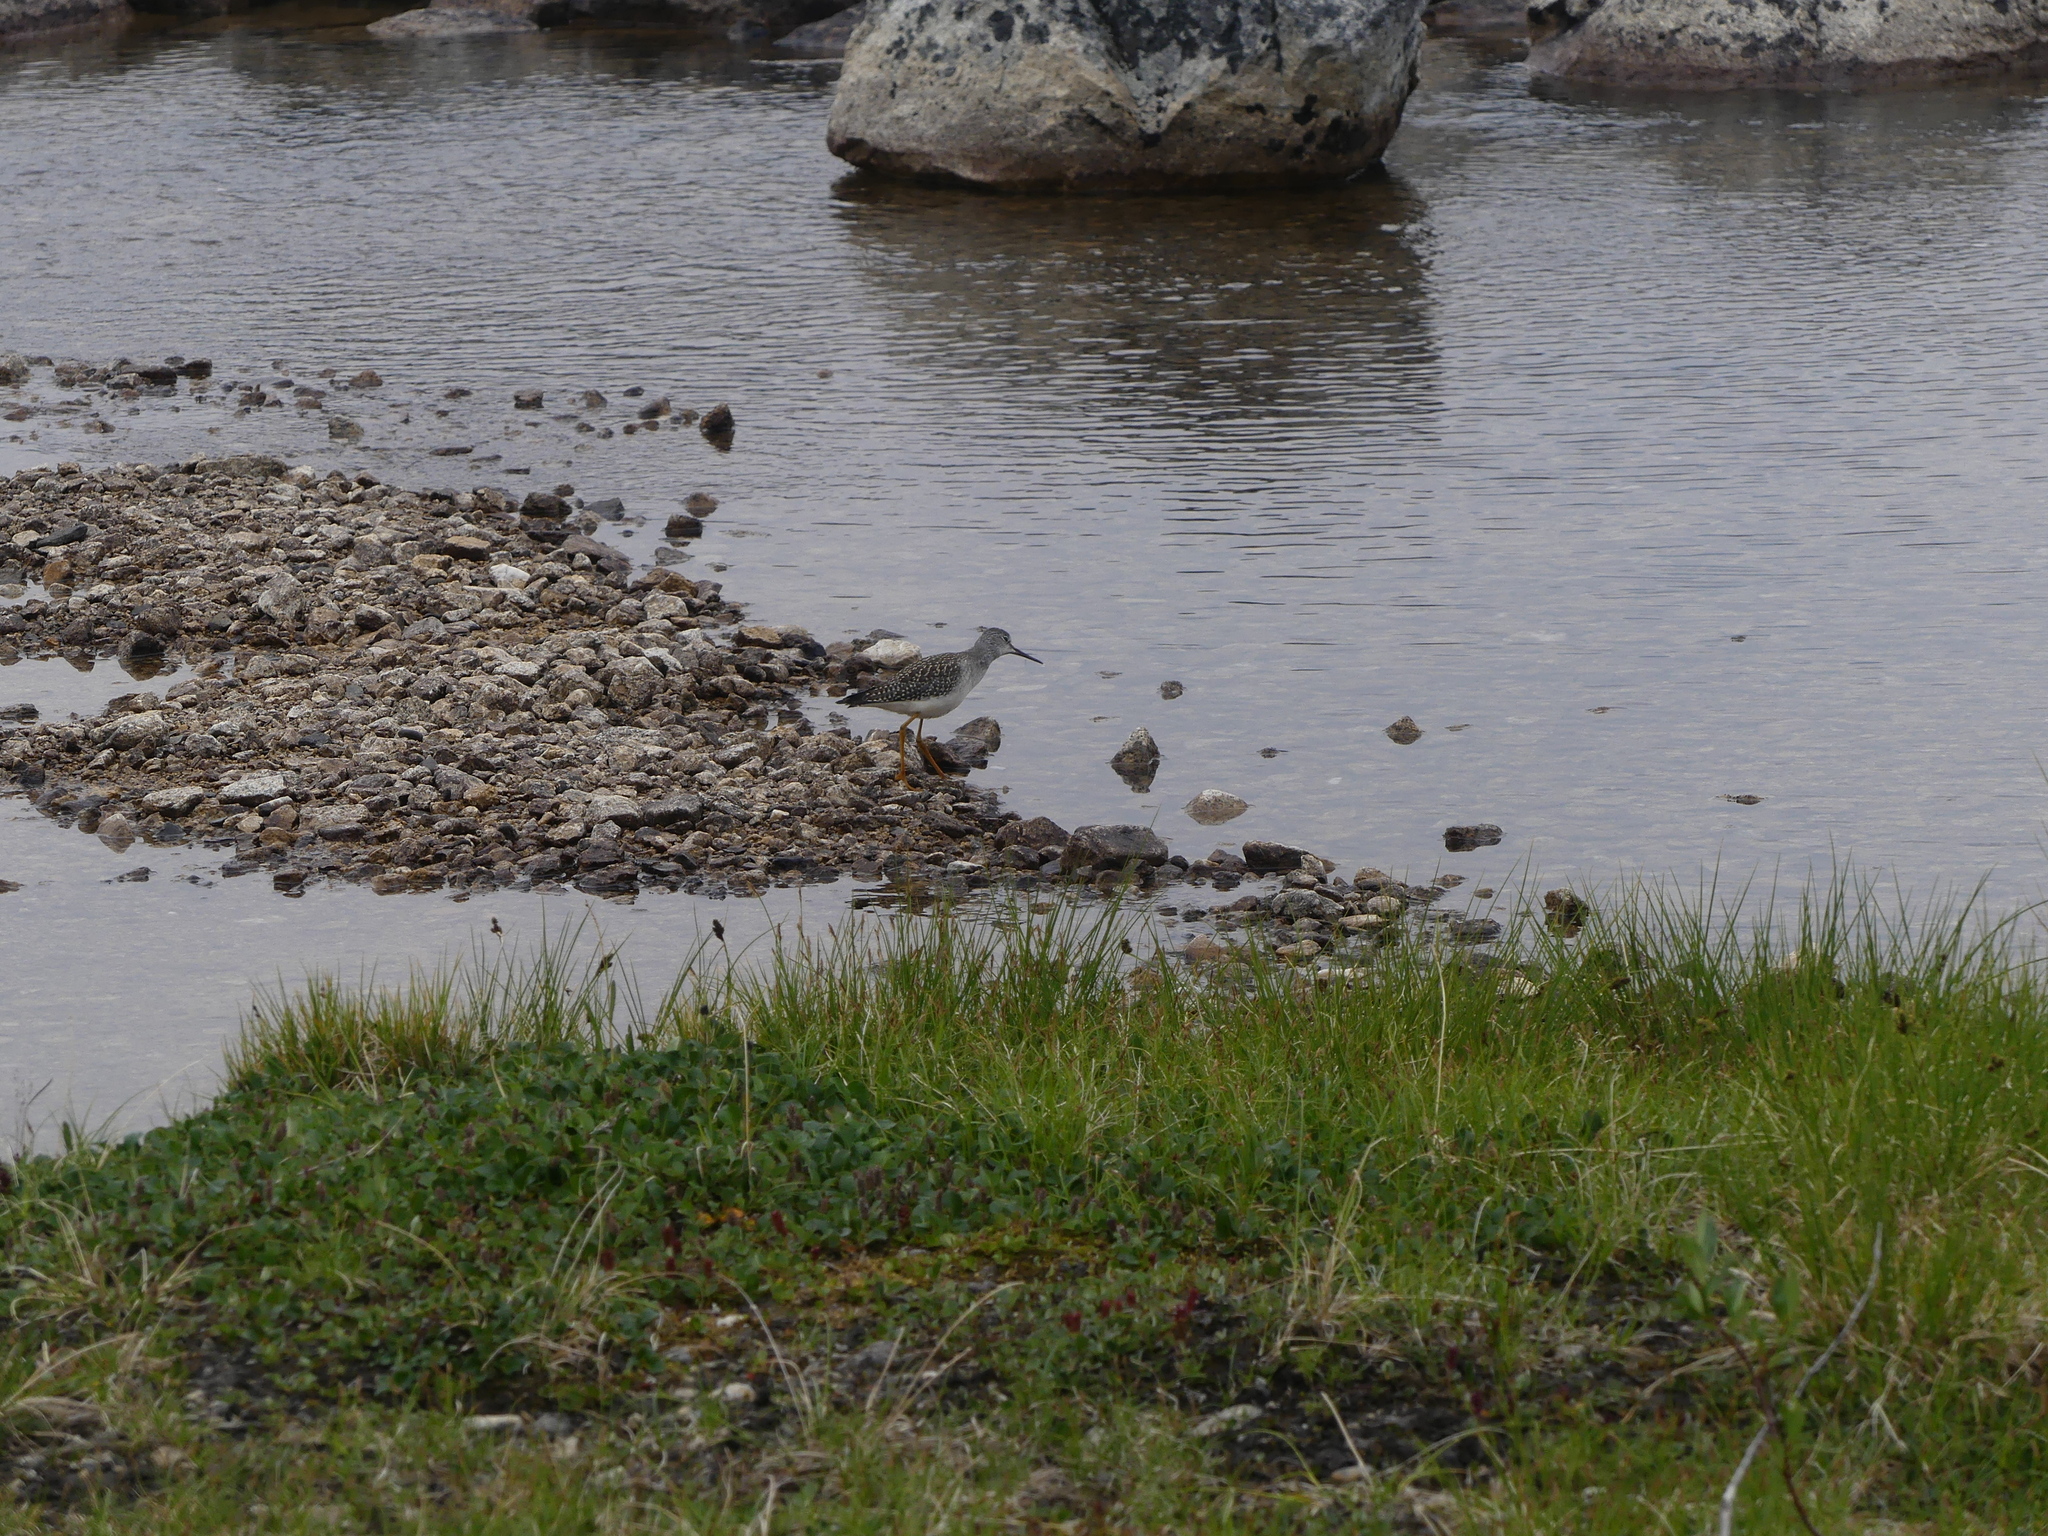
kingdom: Animalia
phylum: Chordata
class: Aves
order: Charadriiformes
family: Scolopacidae
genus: Tringa
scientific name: Tringa melanoleuca
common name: Greater yellowlegs
